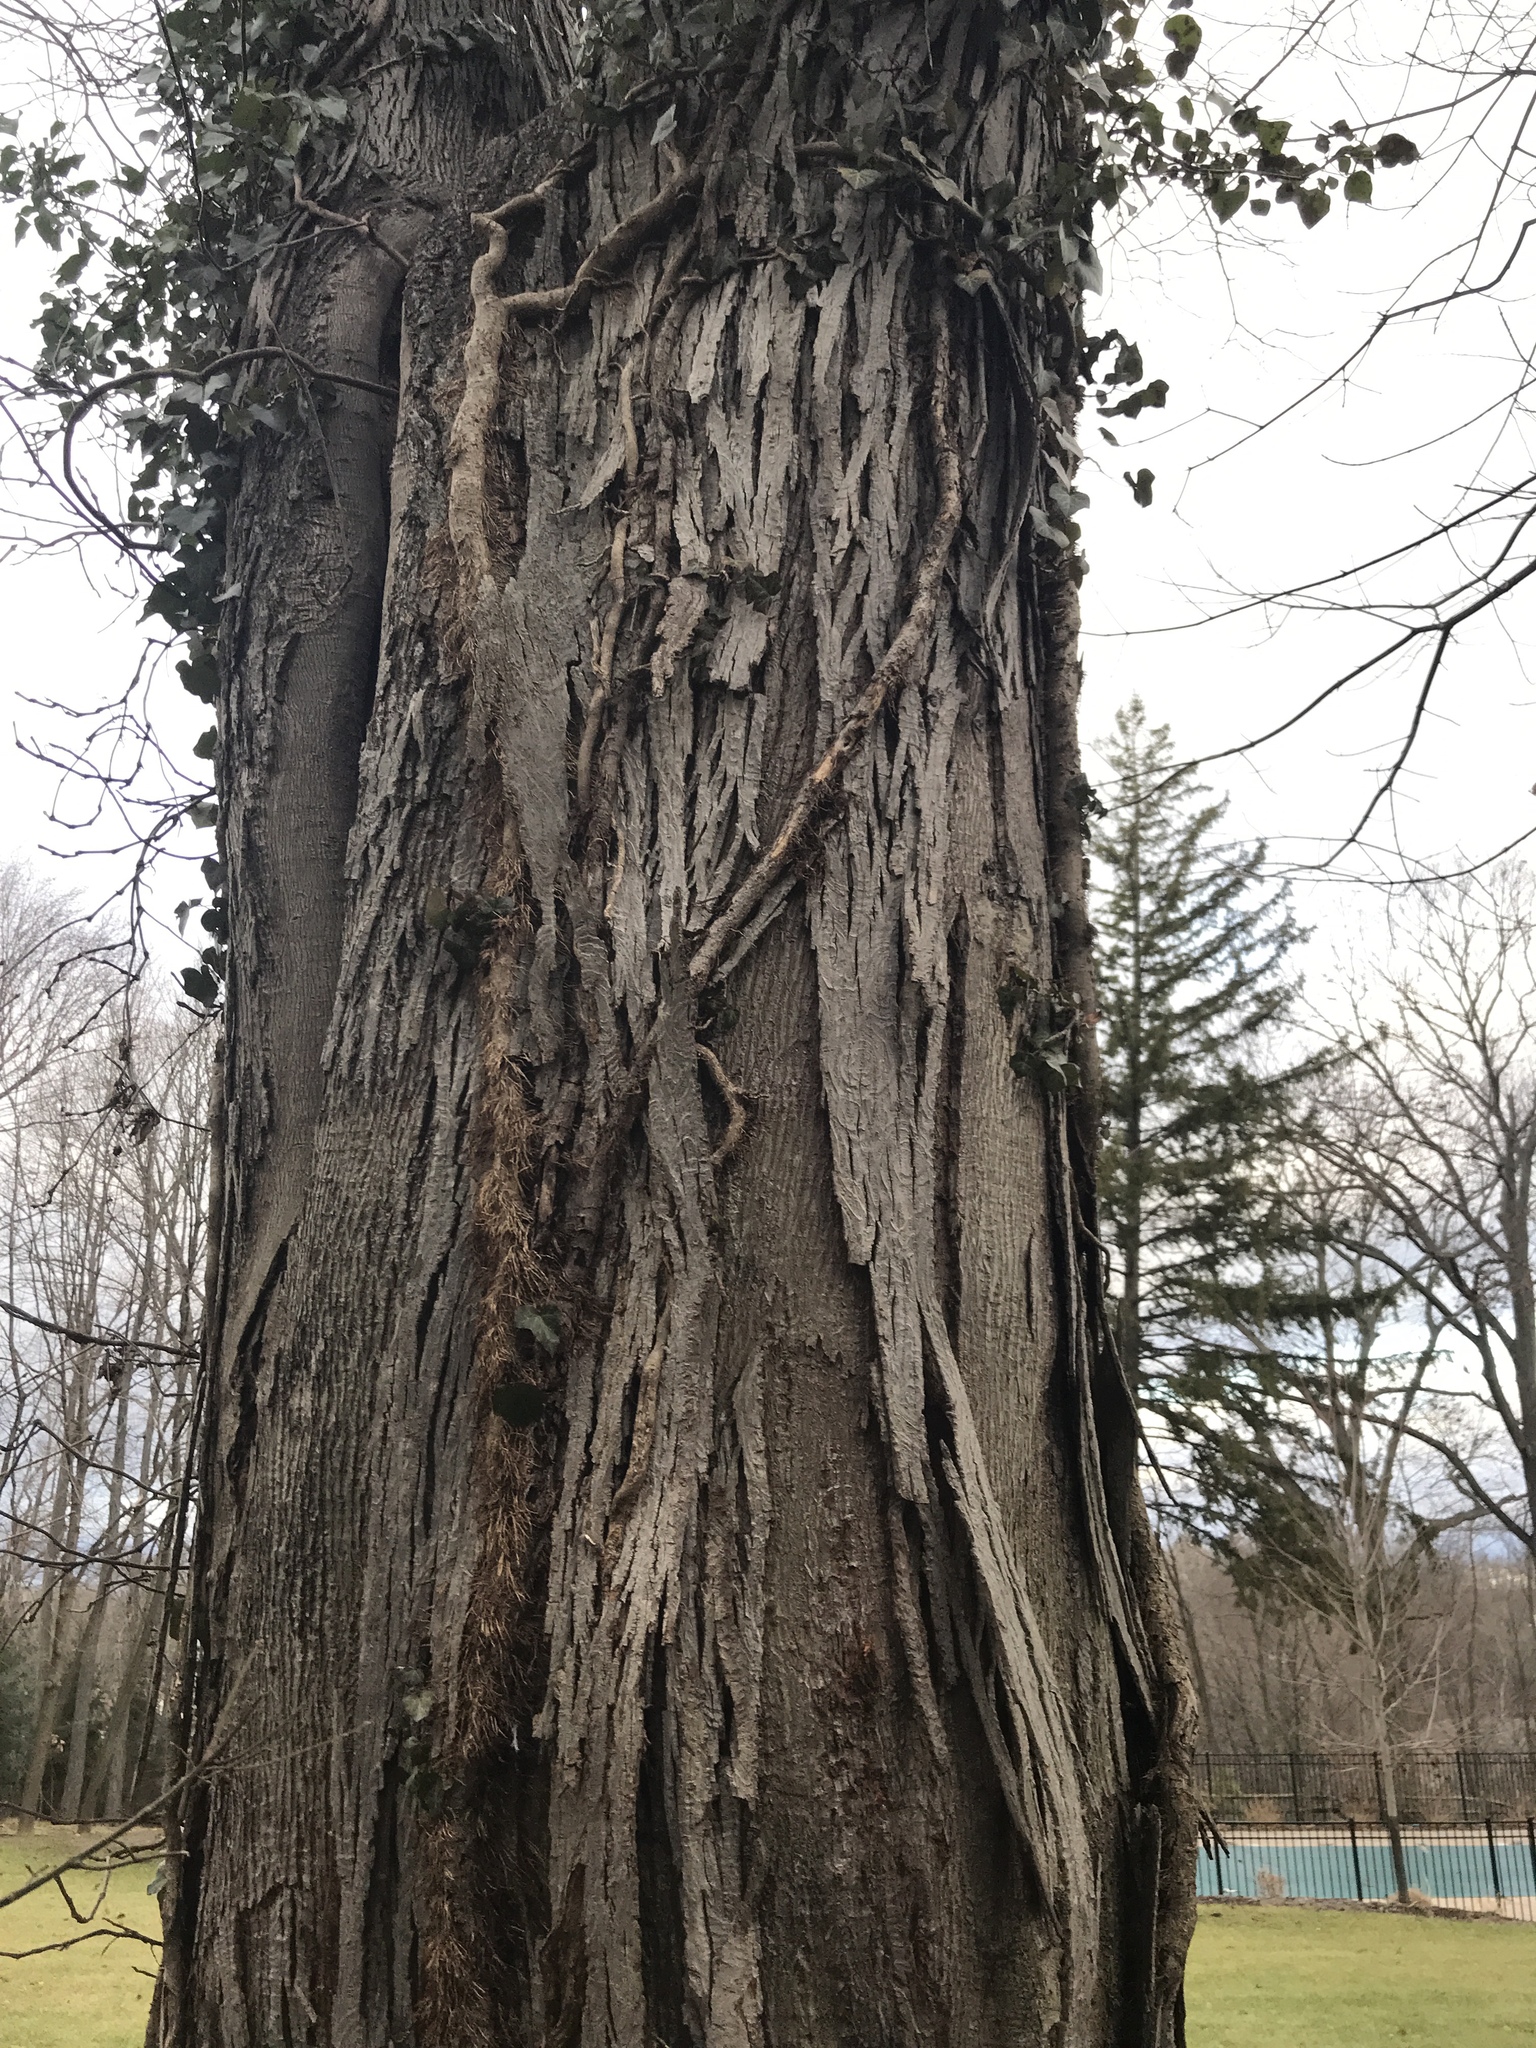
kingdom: Plantae
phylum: Tracheophyta
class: Magnoliopsida
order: Fagales
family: Juglandaceae
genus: Carya
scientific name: Carya ovata
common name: Shagbark hickory
